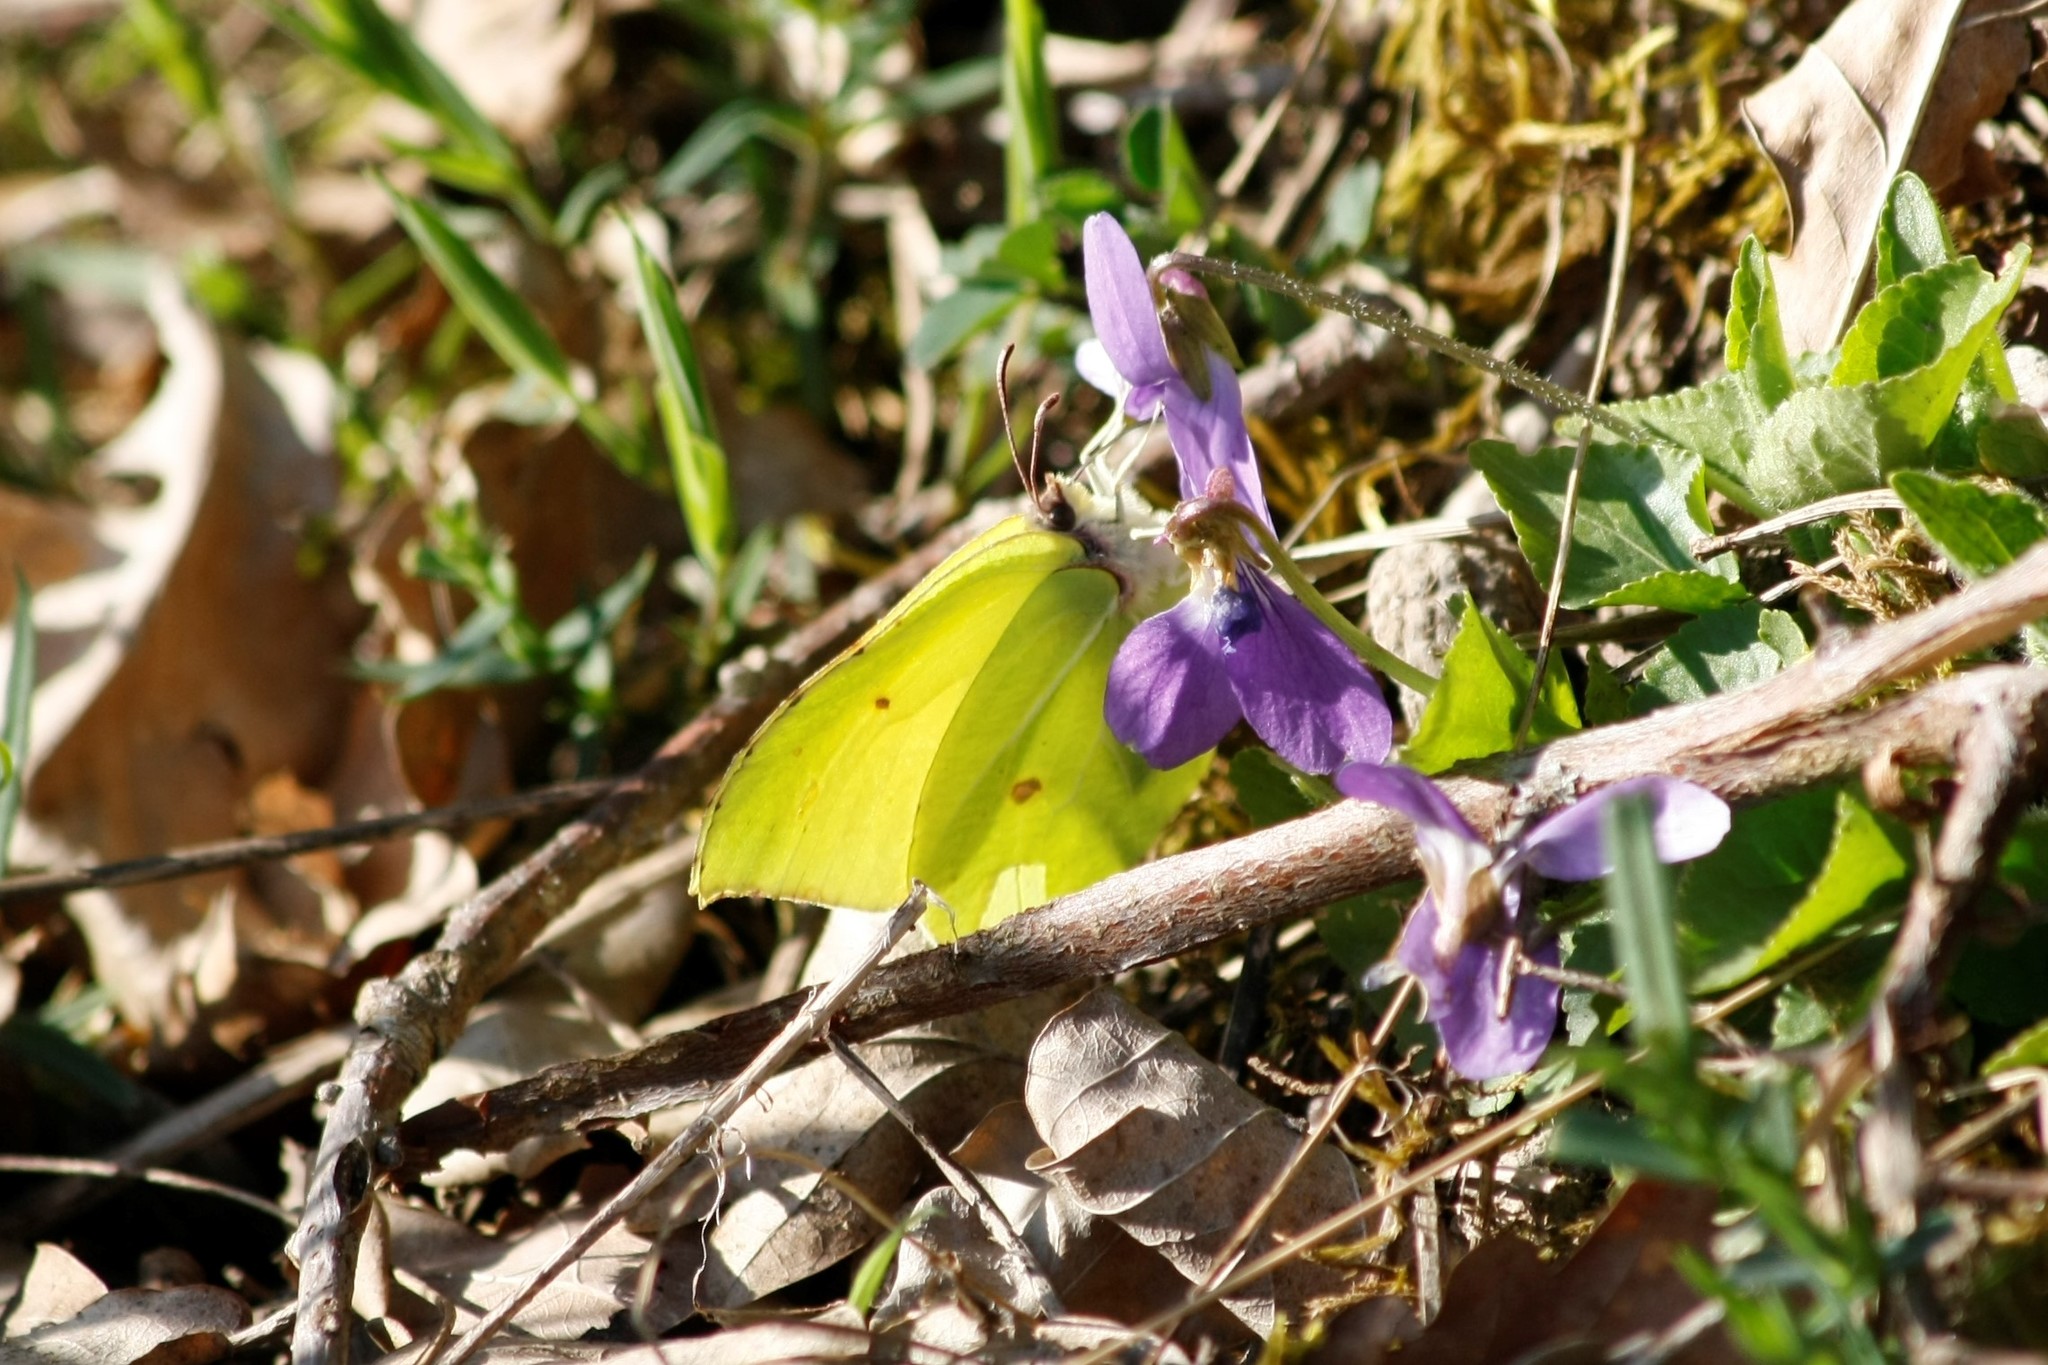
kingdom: Animalia
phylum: Arthropoda
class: Insecta
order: Lepidoptera
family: Pieridae
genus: Gonepteryx
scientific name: Gonepteryx rhamni
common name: Brimstone
